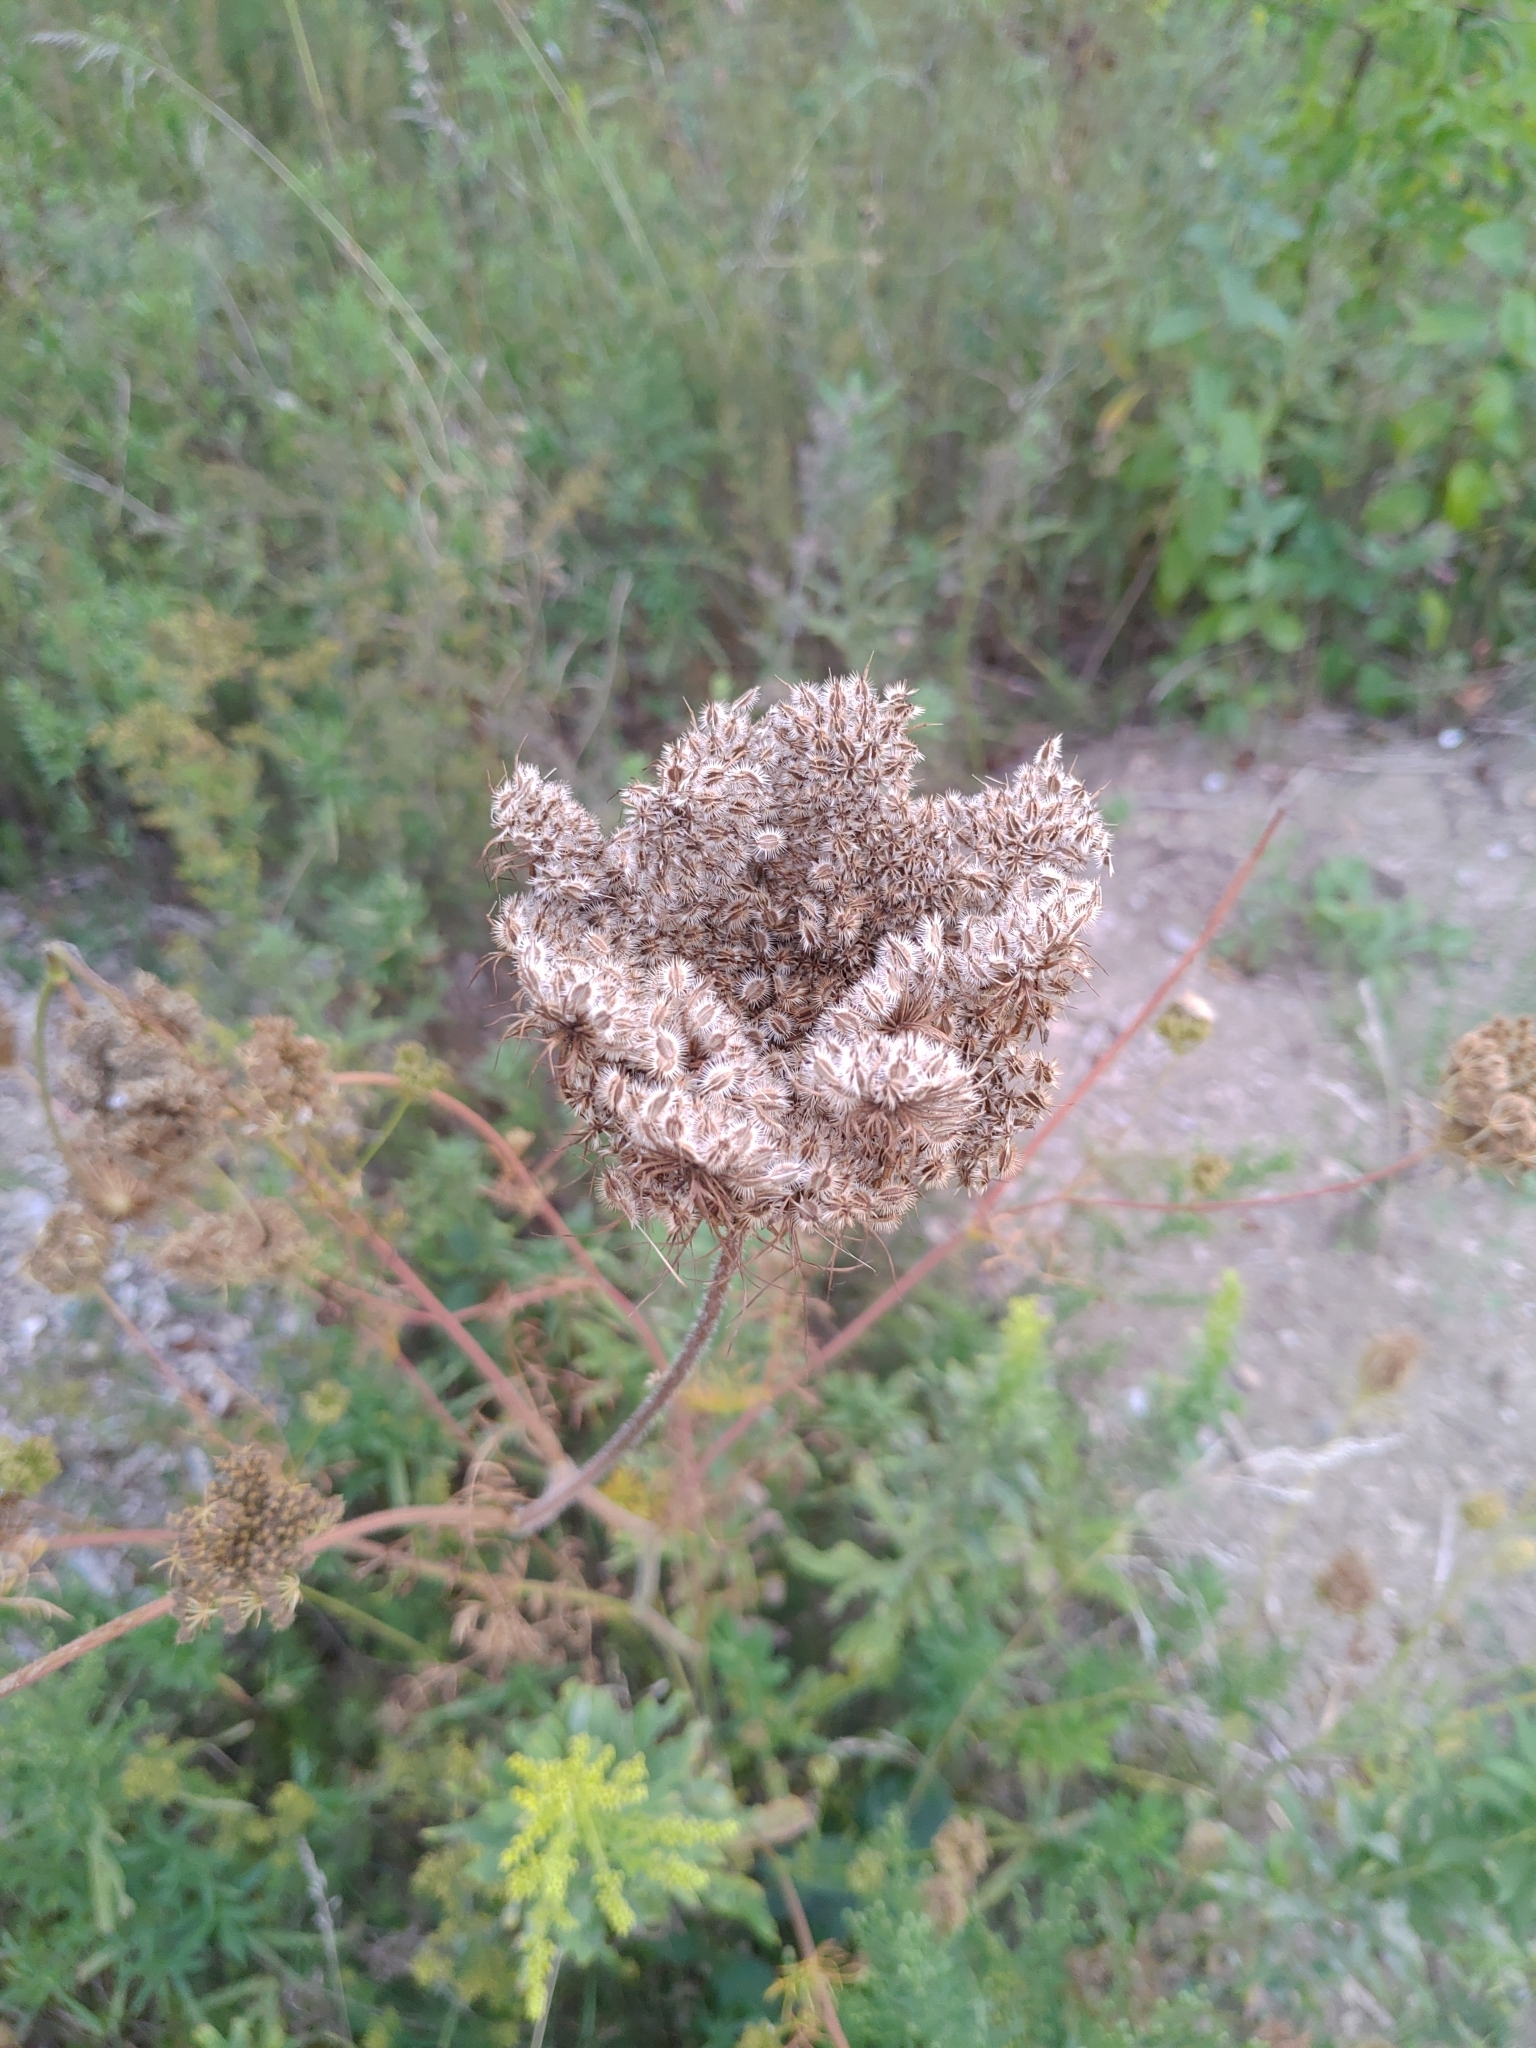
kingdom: Plantae
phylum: Tracheophyta
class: Magnoliopsida
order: Apiales
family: Apiaceae
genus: Daucus
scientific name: Daucus carota
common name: Wild carrot
